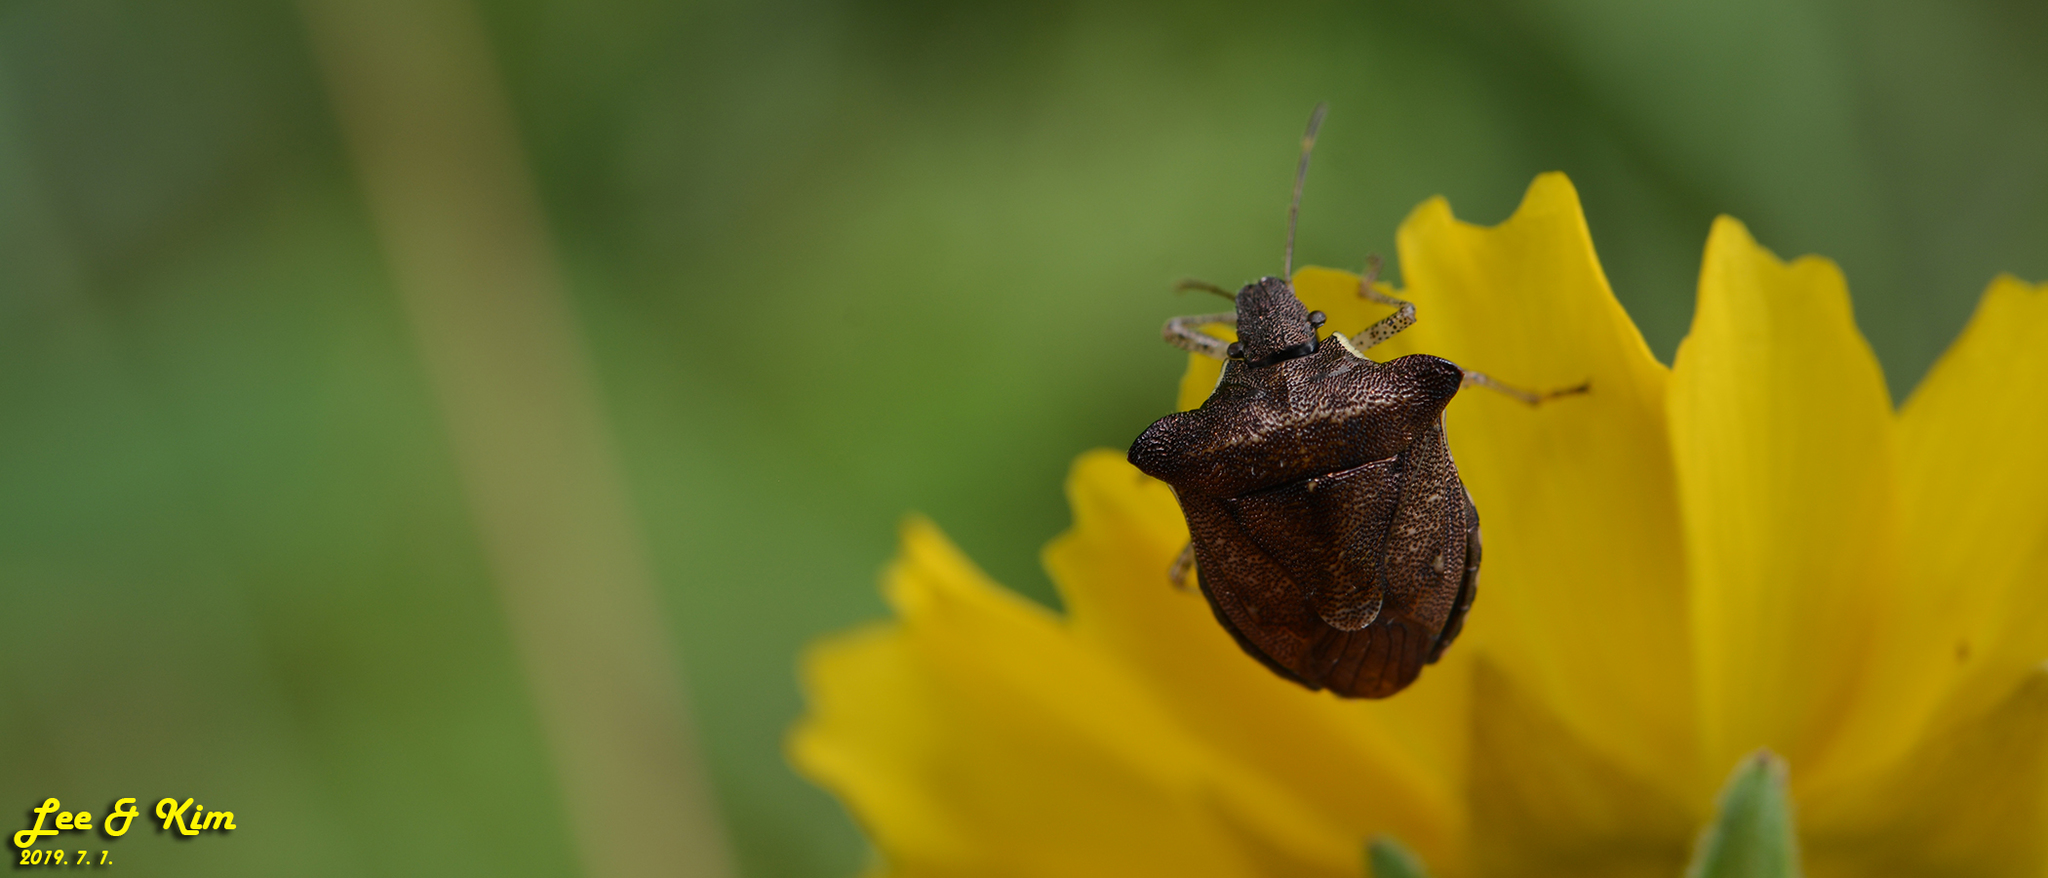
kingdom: Animalia
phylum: Arthropoda
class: Insecta
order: Hemiptera
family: Pentatomidae
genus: Carbula
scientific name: Carbula putoni
